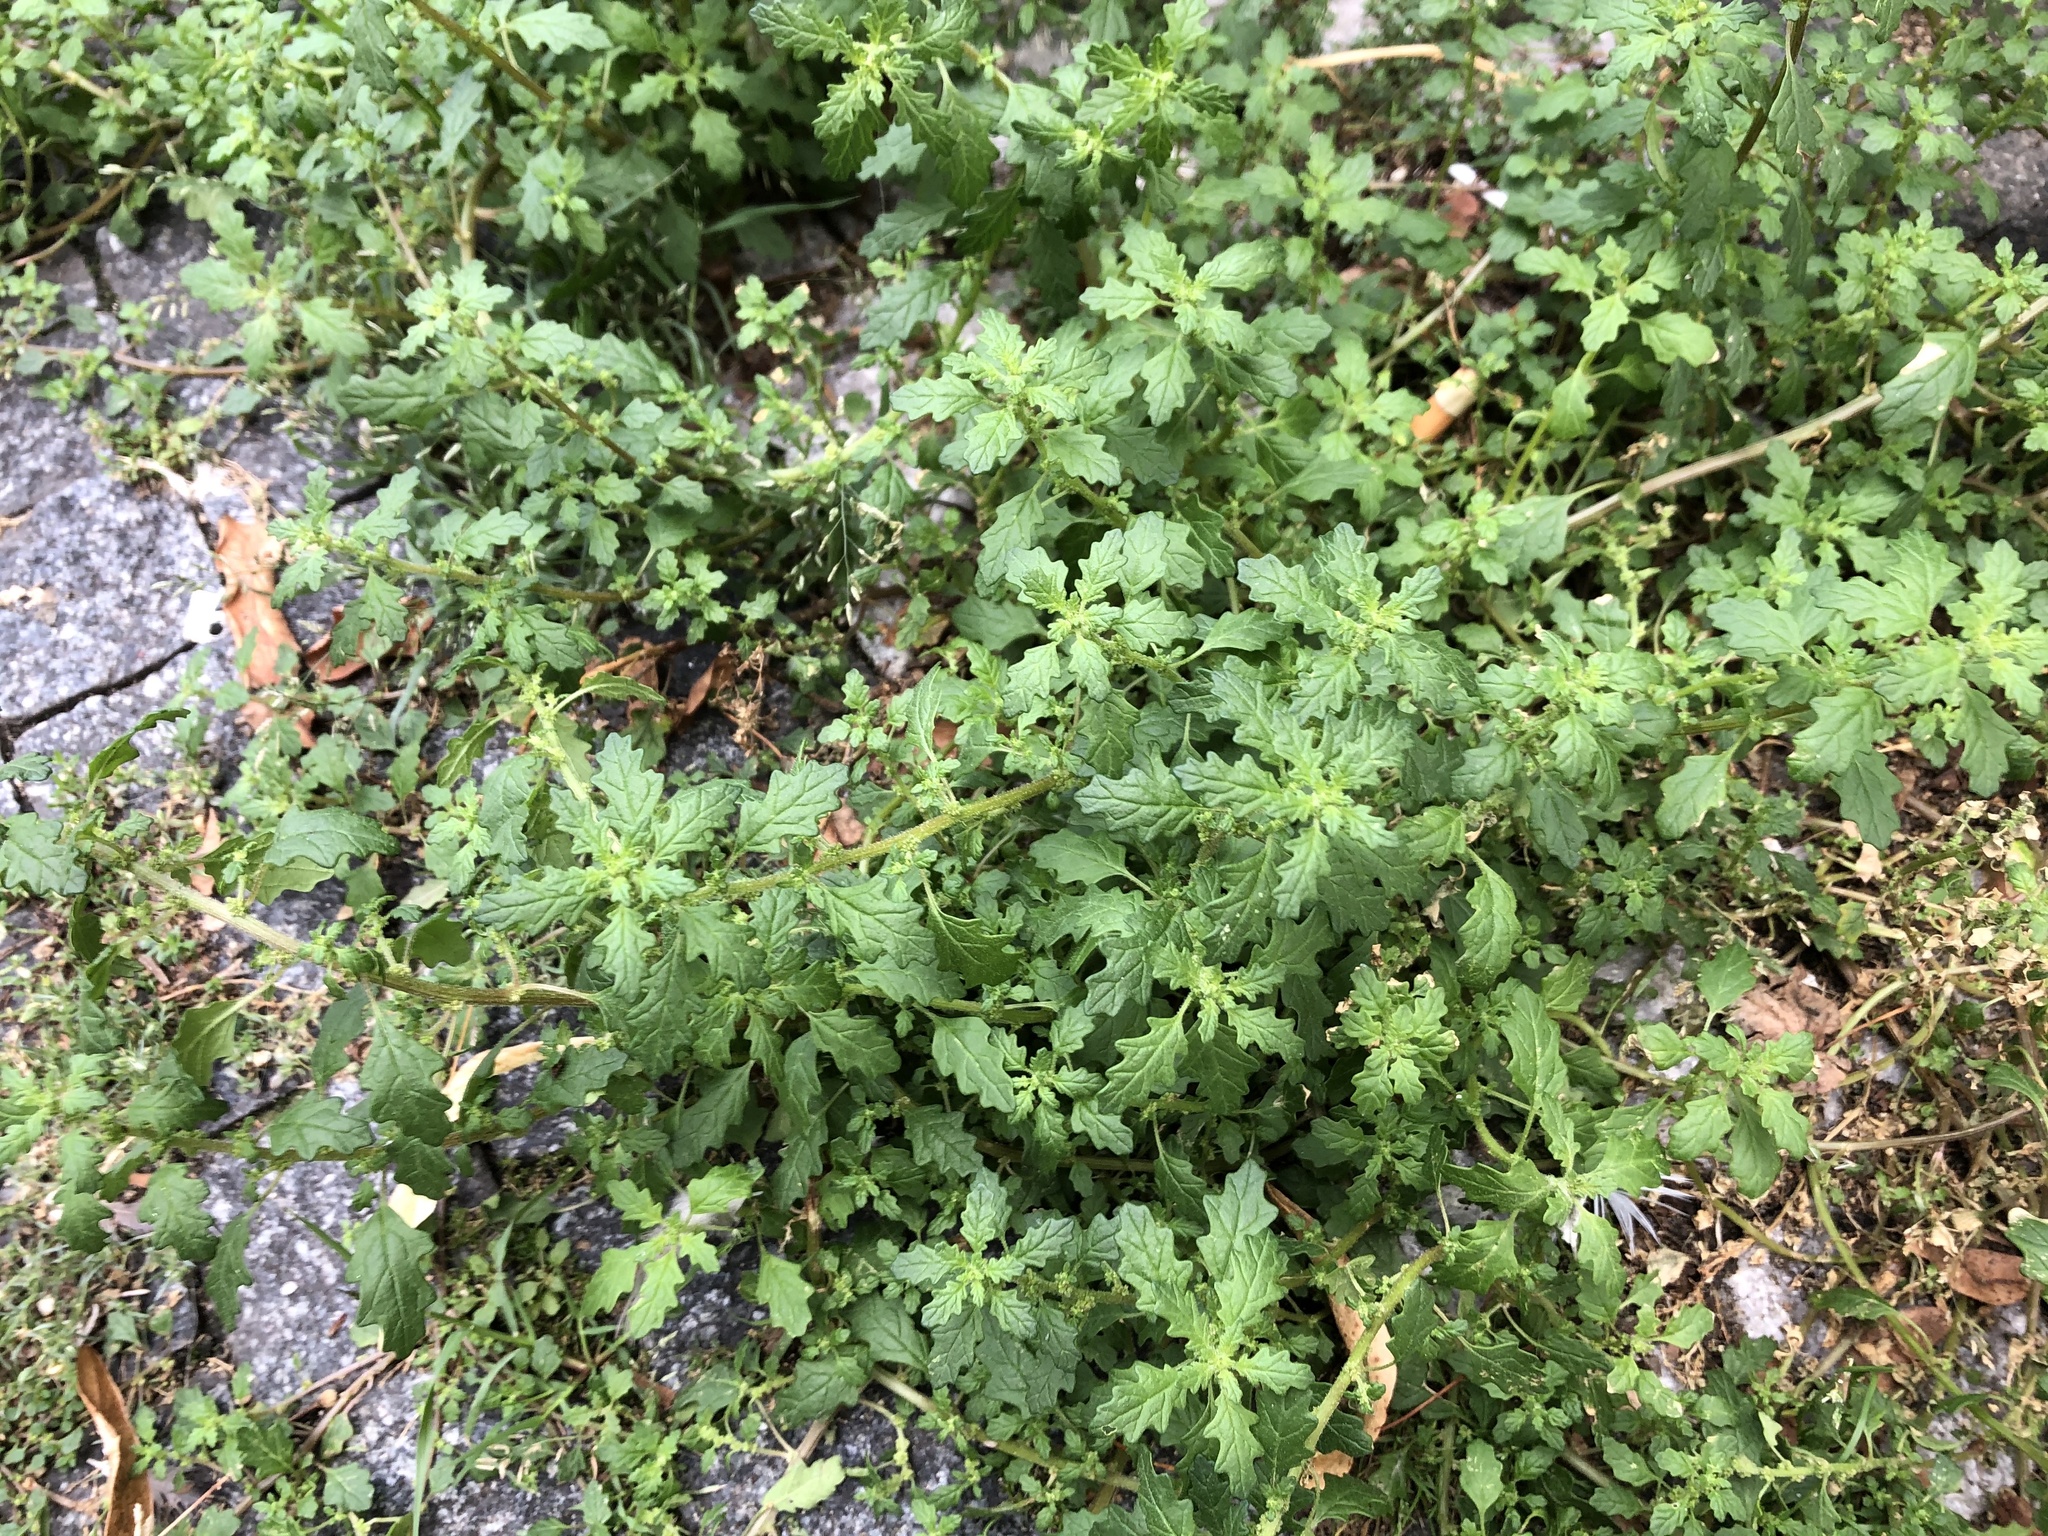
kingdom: Plantae
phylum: Tracheophyta
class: Magnoliopsida
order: Caryophyllales
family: Amaranthaceae
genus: Dysphania
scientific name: Dysphania pumilio
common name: Clammy goosefoot
